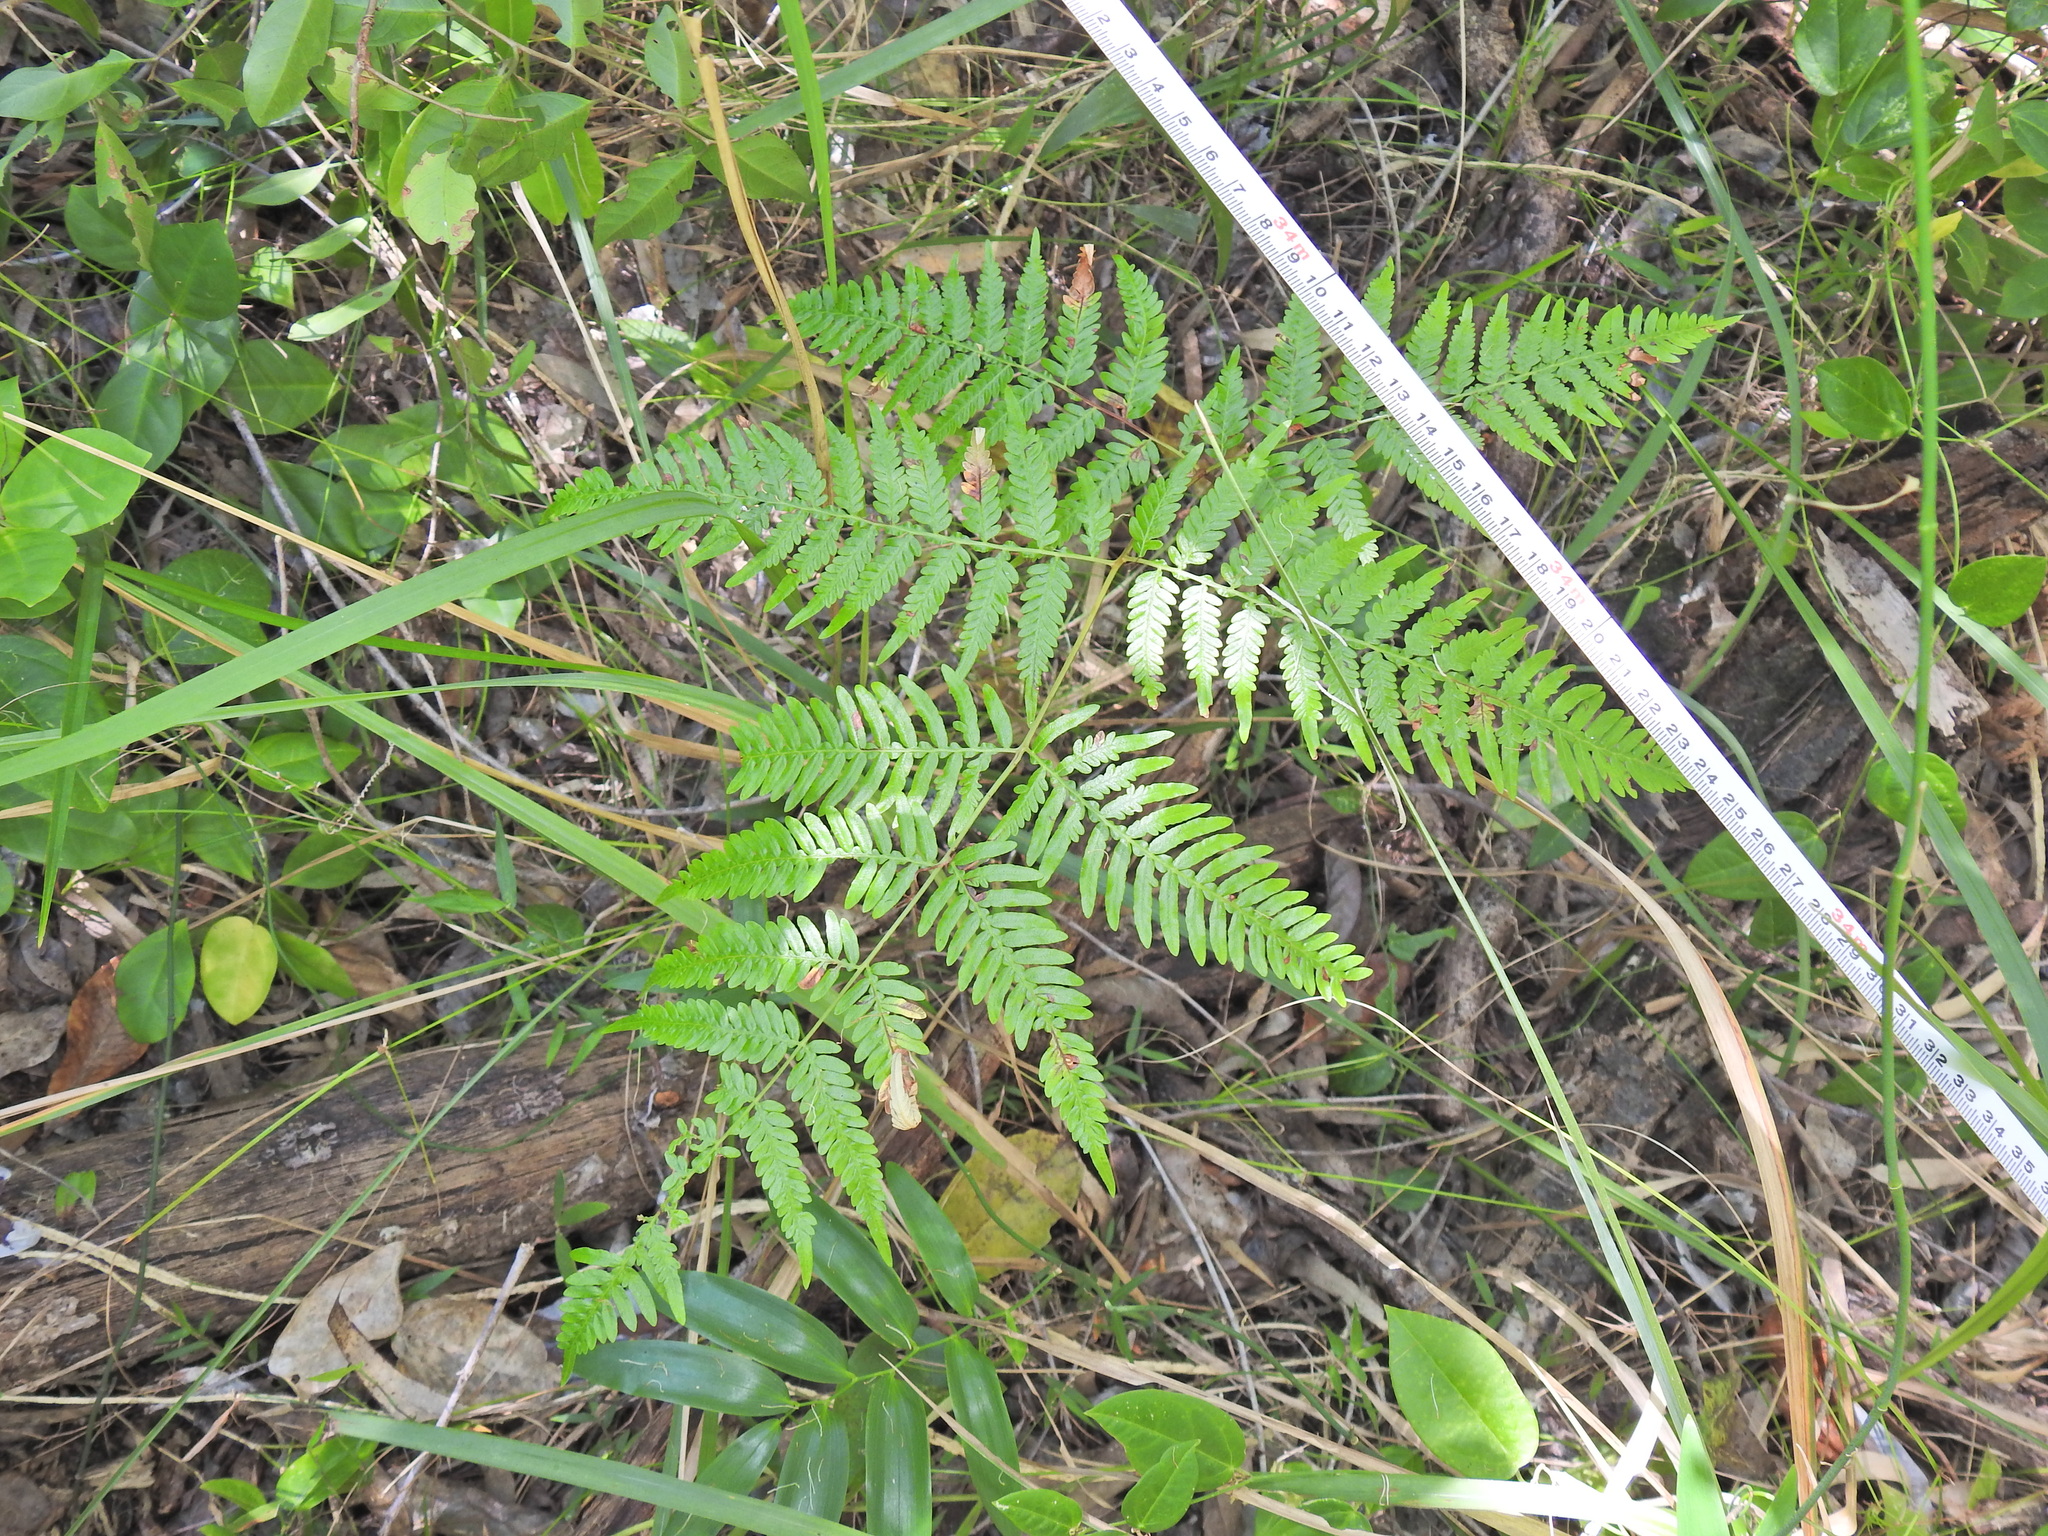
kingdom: Plantae
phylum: Tracheophyta
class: Polypodiopsida
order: Polypodiales
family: Dennstaedtiaceae
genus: Pteridium
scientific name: Pteridium esculentum
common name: Bracken fern
